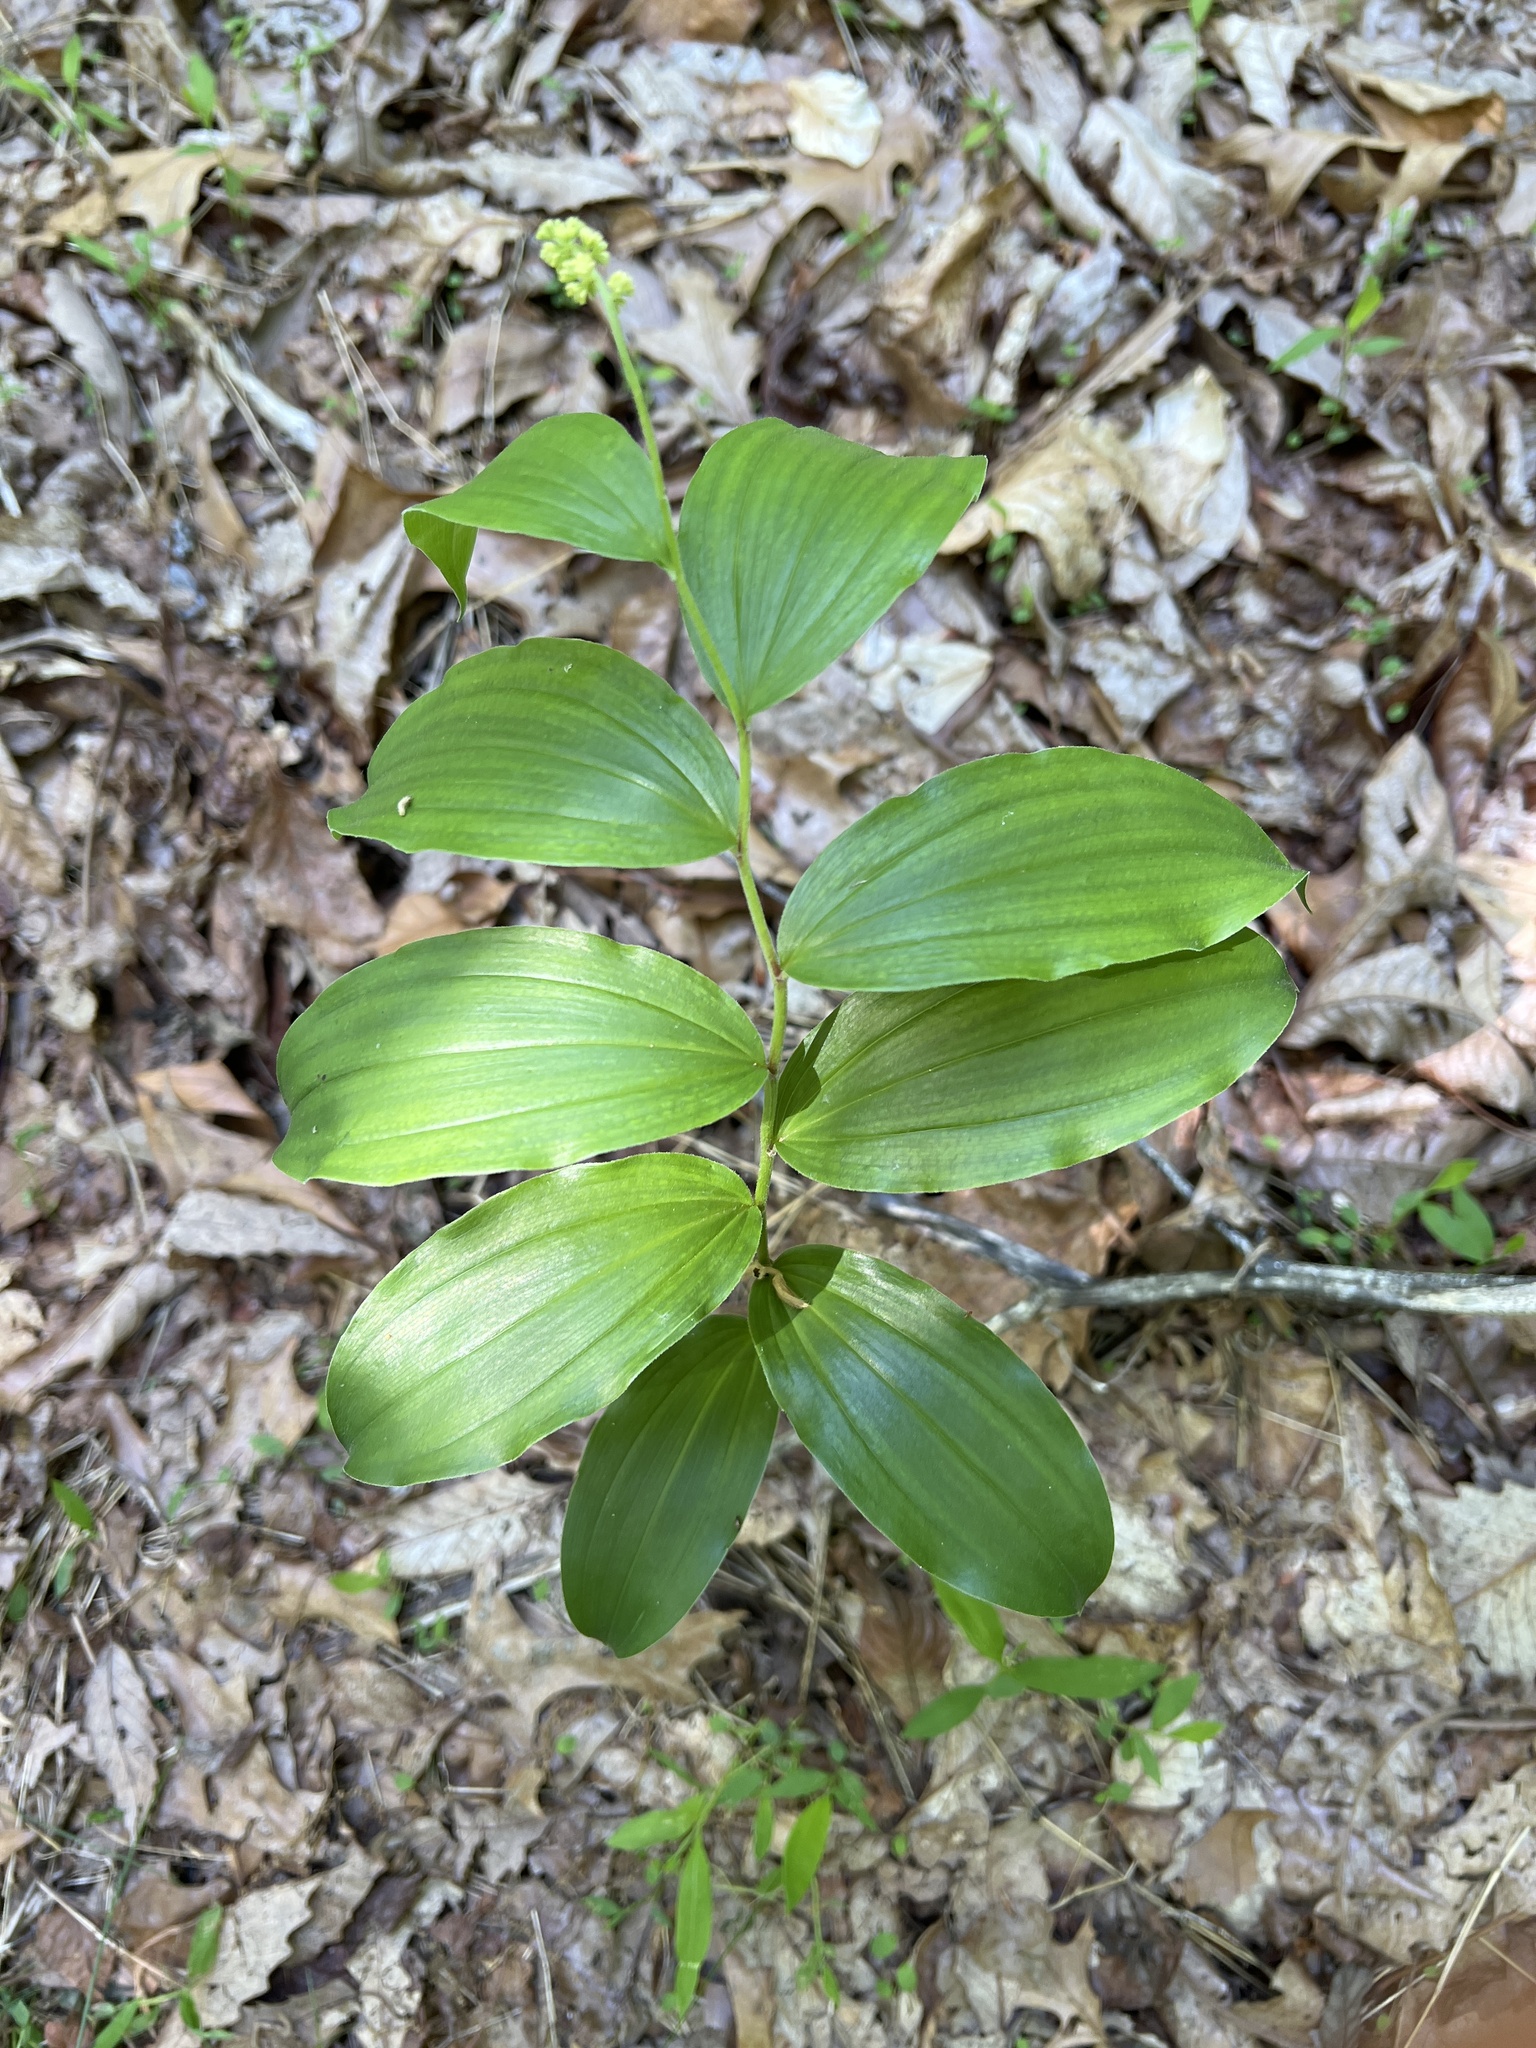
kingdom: Plantae
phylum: Tracheophyta
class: Liliopsida
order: Asparagales
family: Asparagaceae
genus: Maianthemum
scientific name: Maianthemum racemosum
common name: False spikenard
